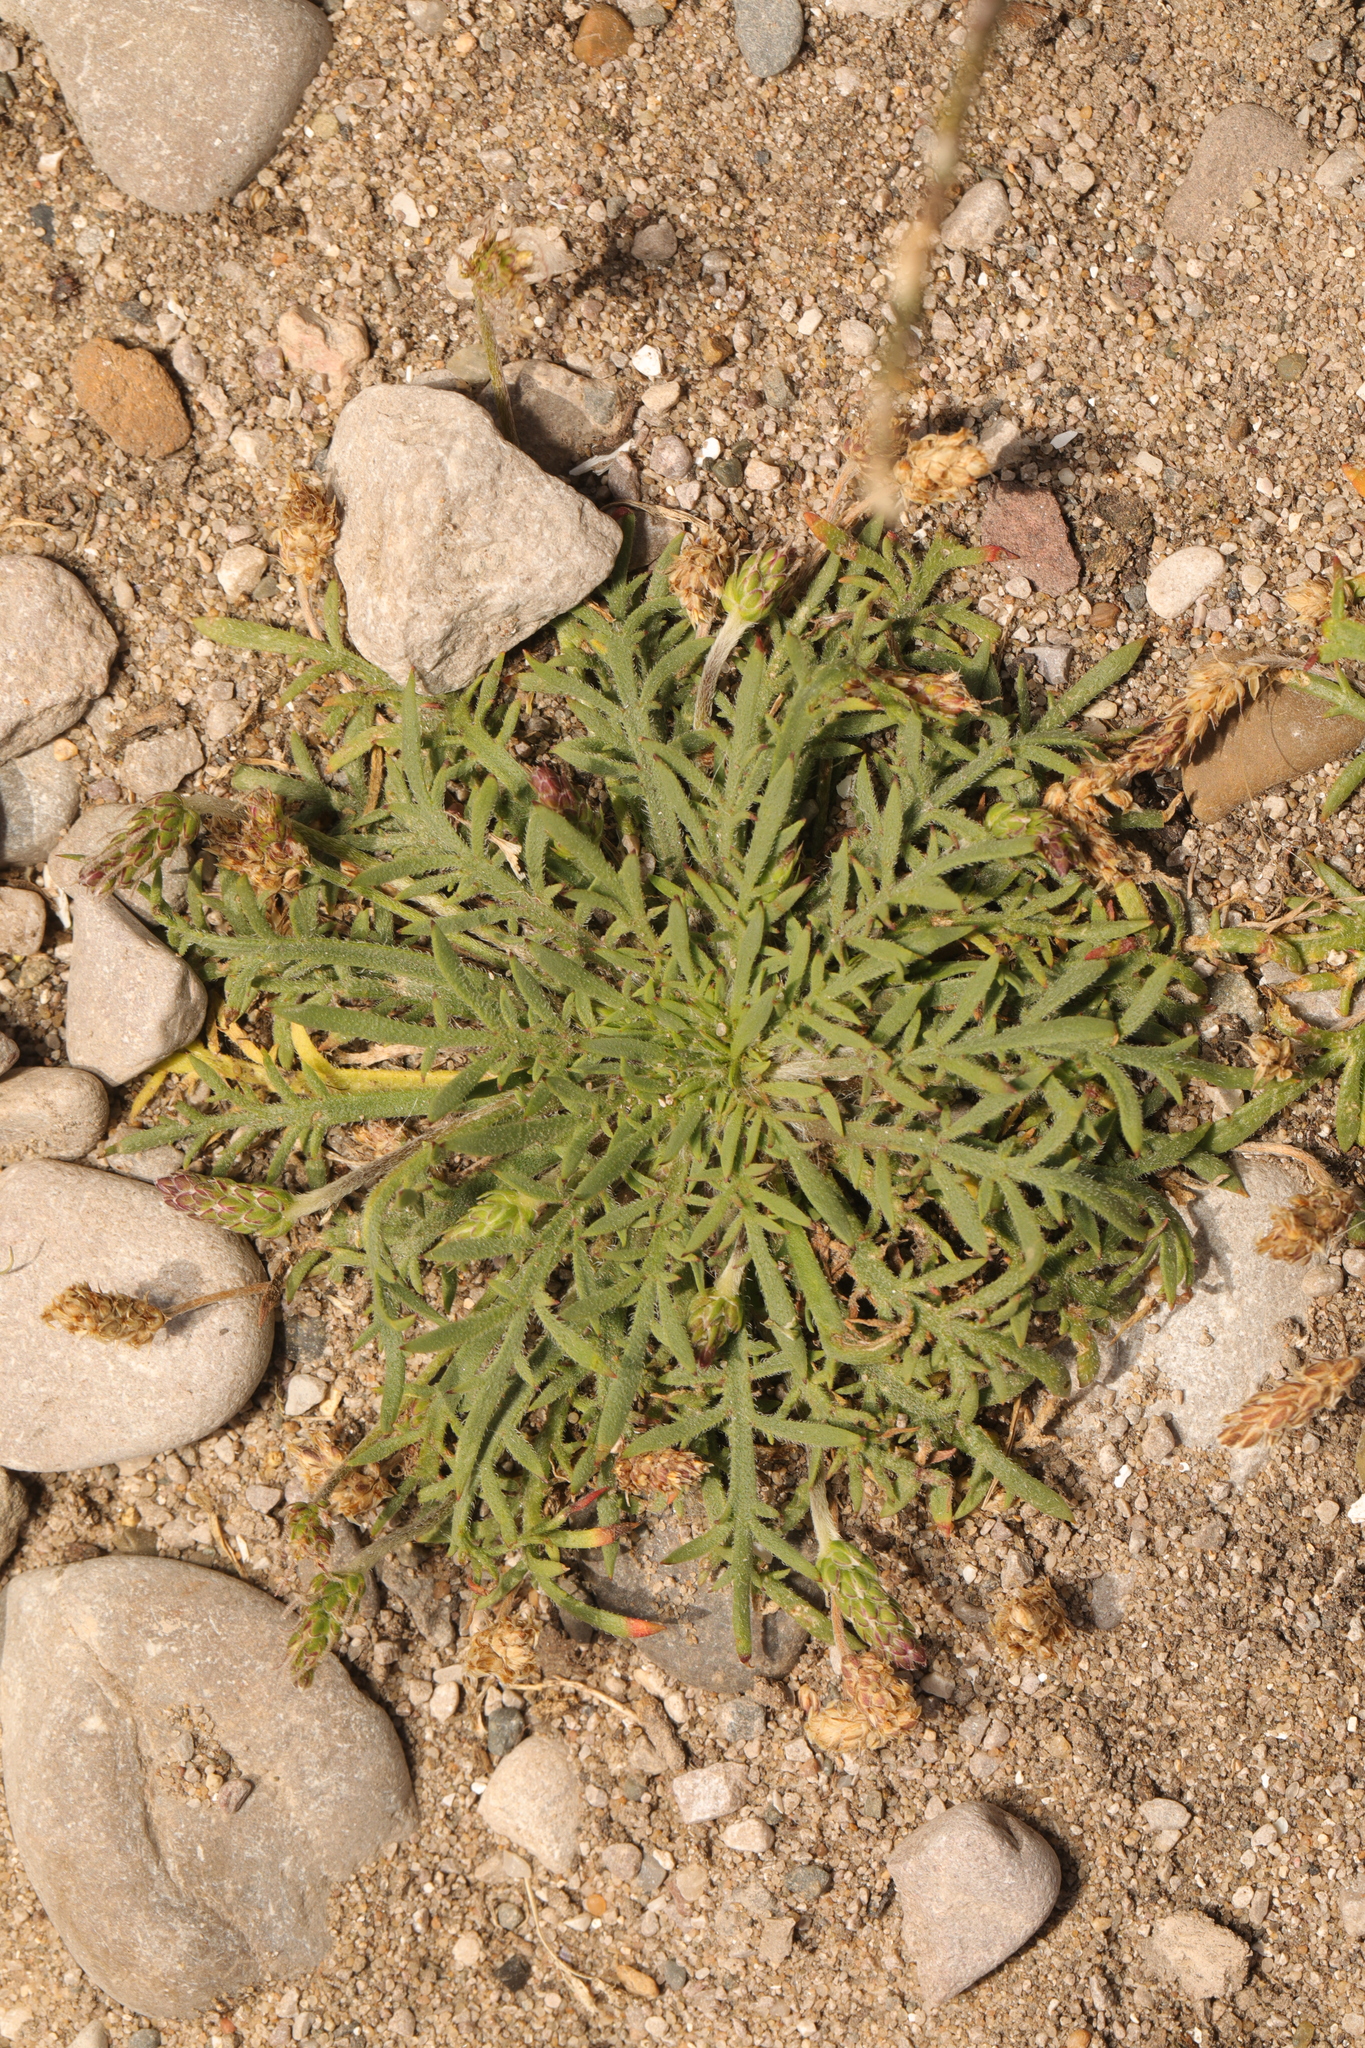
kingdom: Plantae
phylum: Tracheophyta
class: Magnoliopsida
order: Lamiales
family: Plantaginaceae
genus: Plantago
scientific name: Plantago coronopus
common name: Buck's-horn plantain
